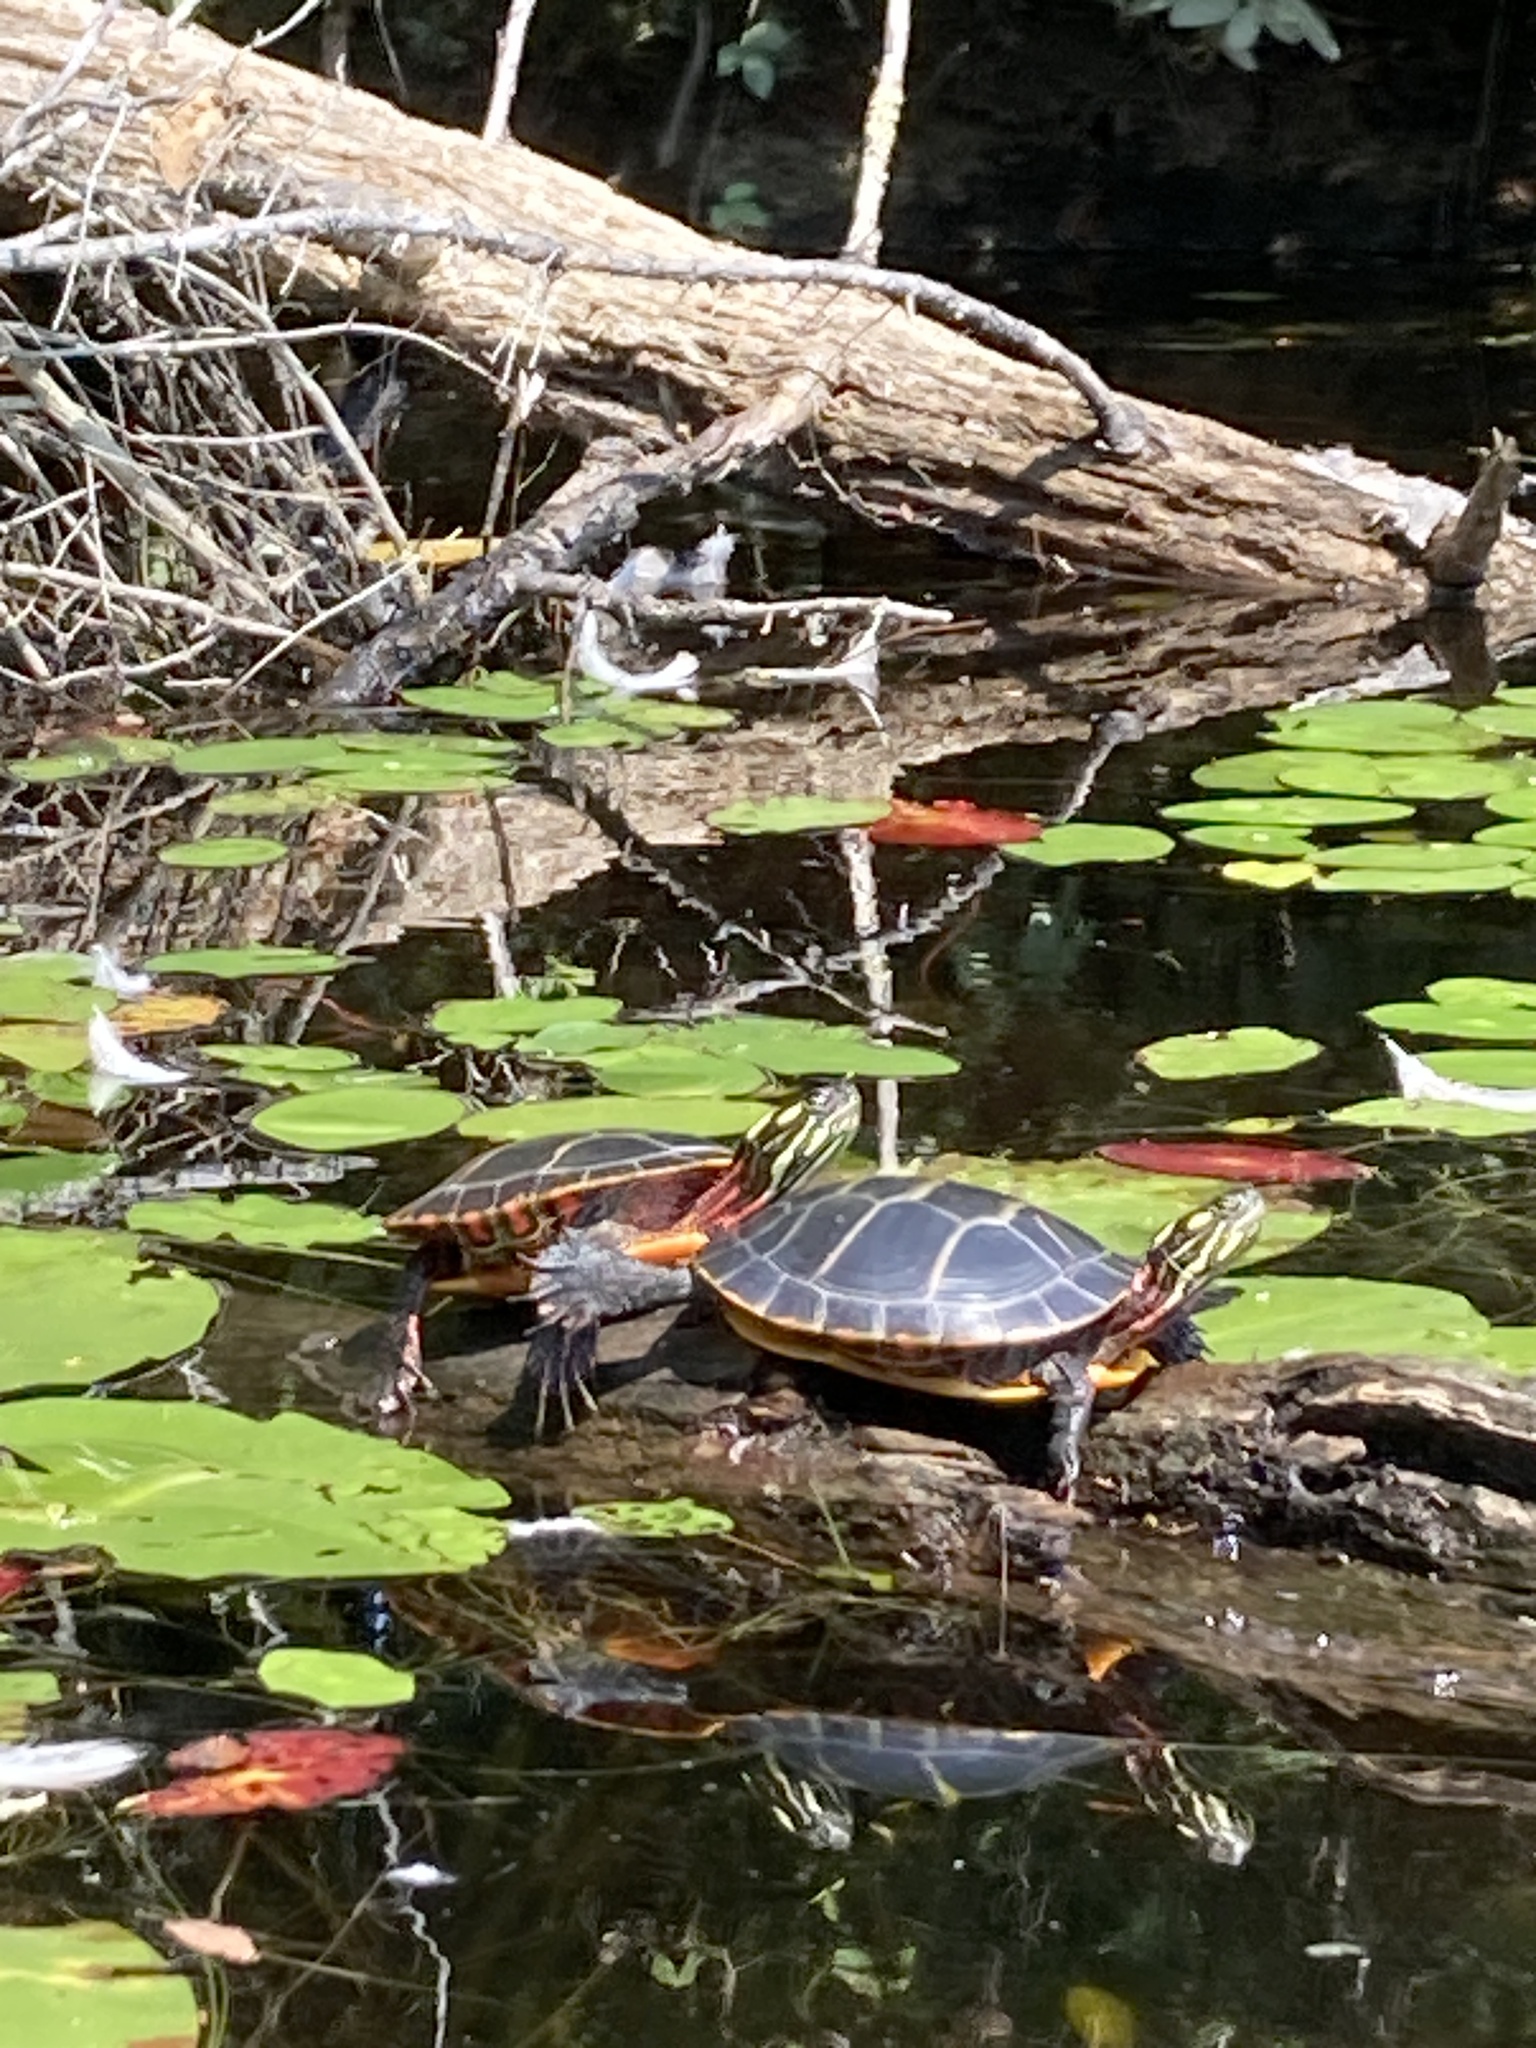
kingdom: Animalia
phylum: Chordata
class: Testudines
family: Emydidae
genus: Chrysemys
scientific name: Chrysemys picta
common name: Painted turtle
